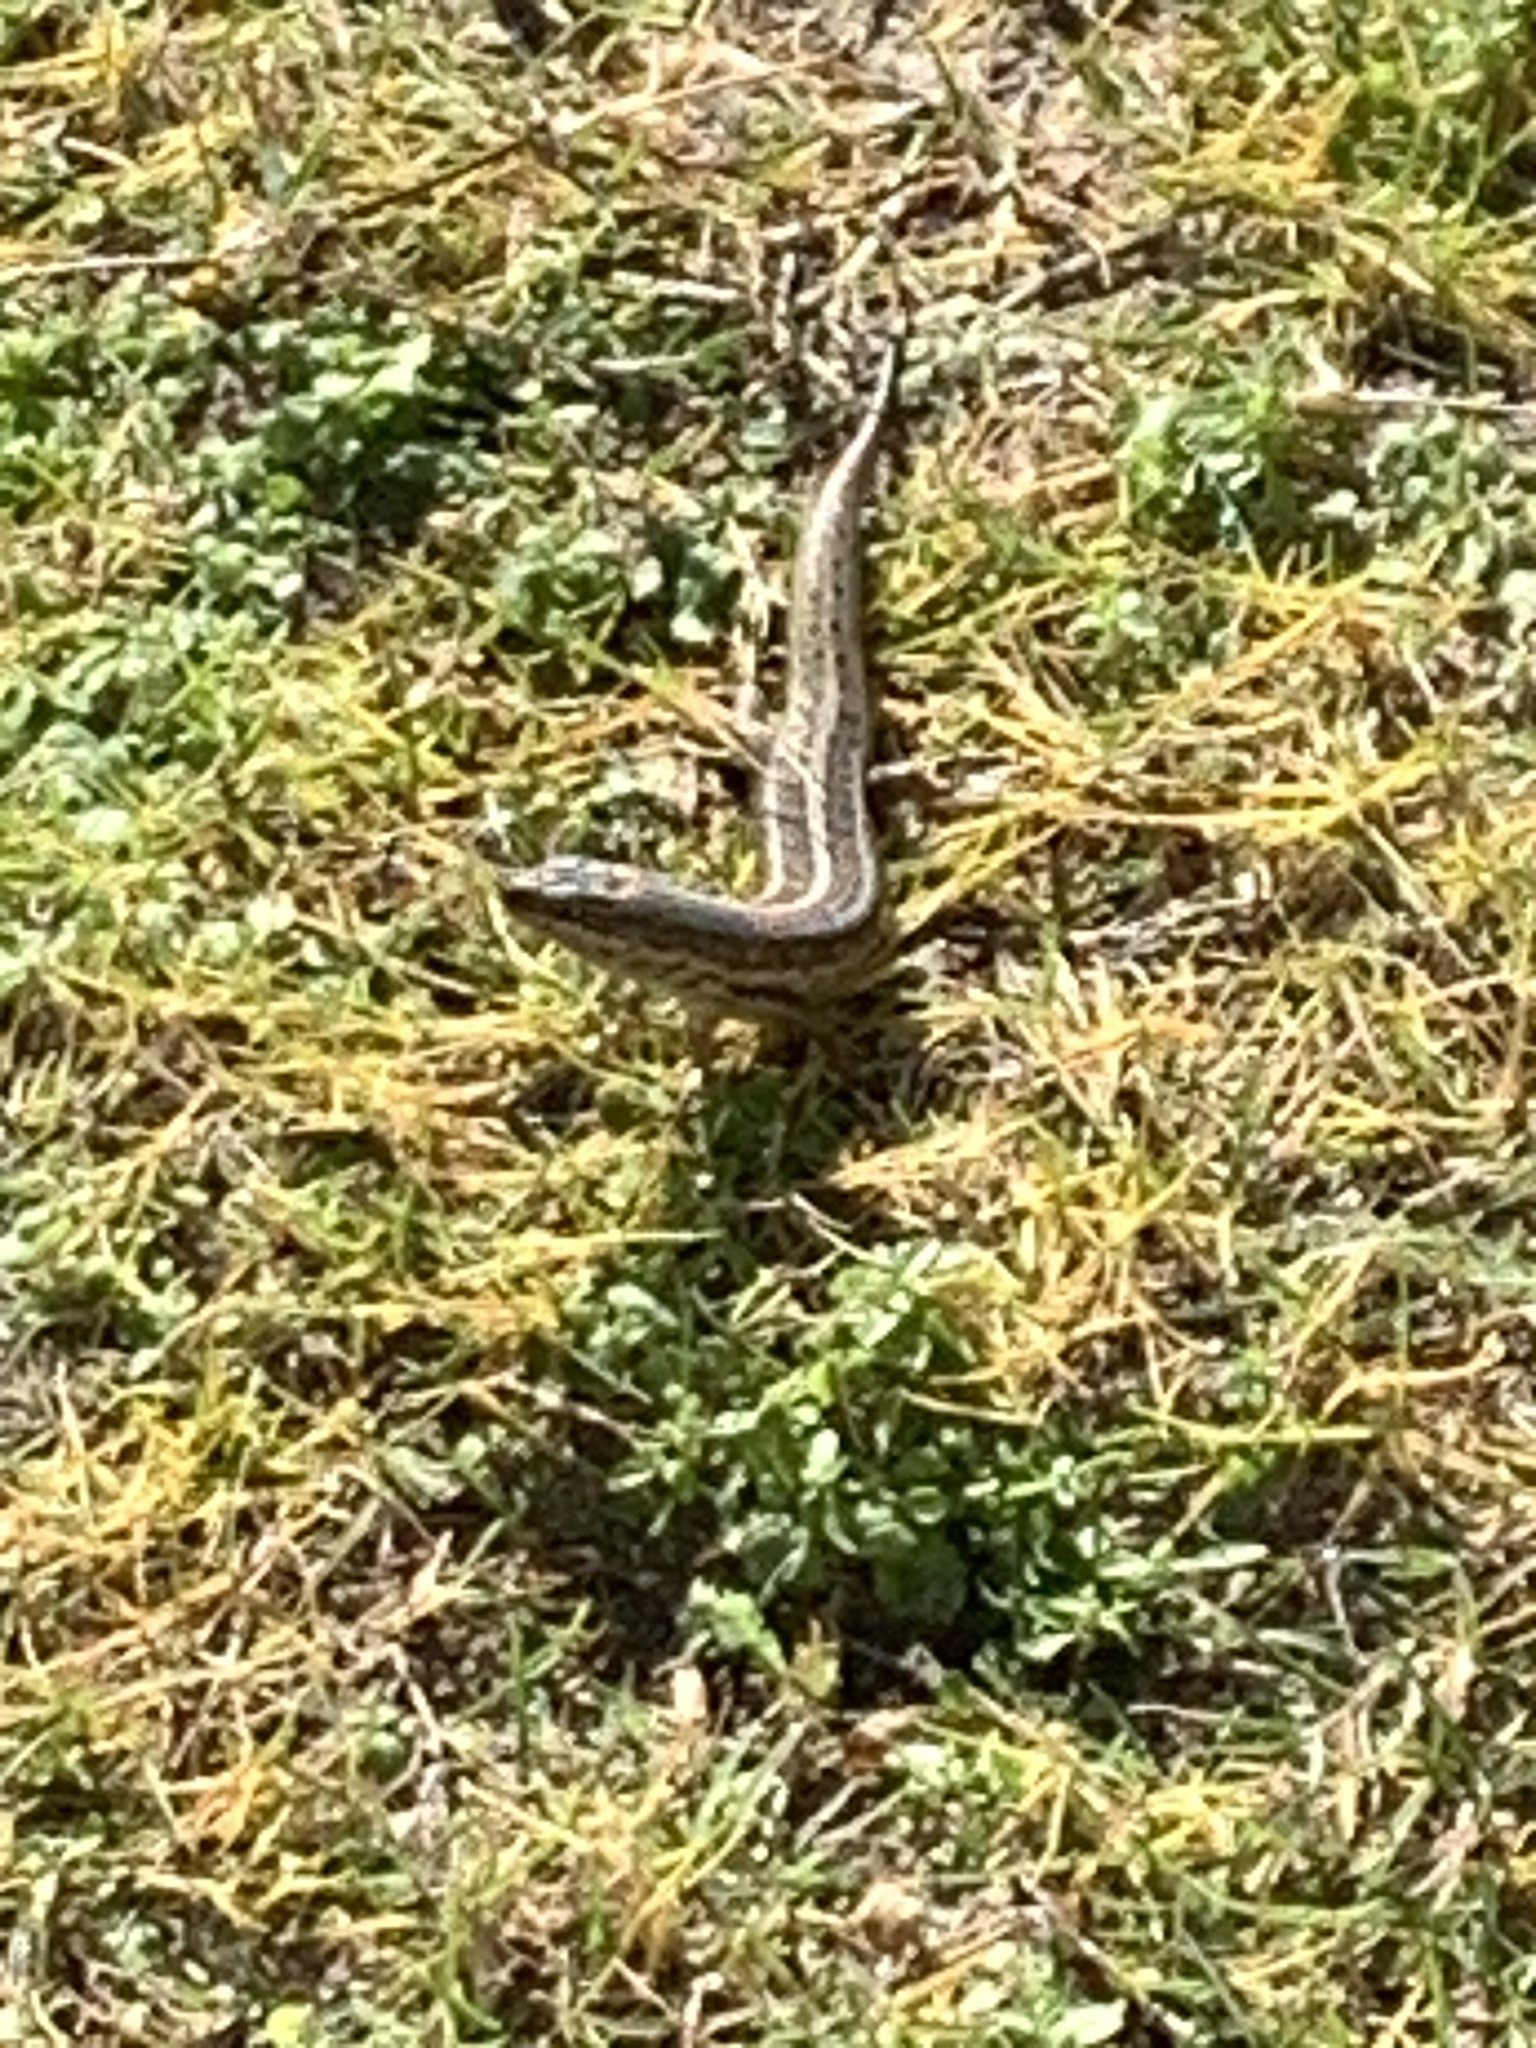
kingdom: Animalia
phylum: Chordata
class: Squamata
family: Scincidae
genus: Trachylepis
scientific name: Trachylepis capensis
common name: Cape skink
